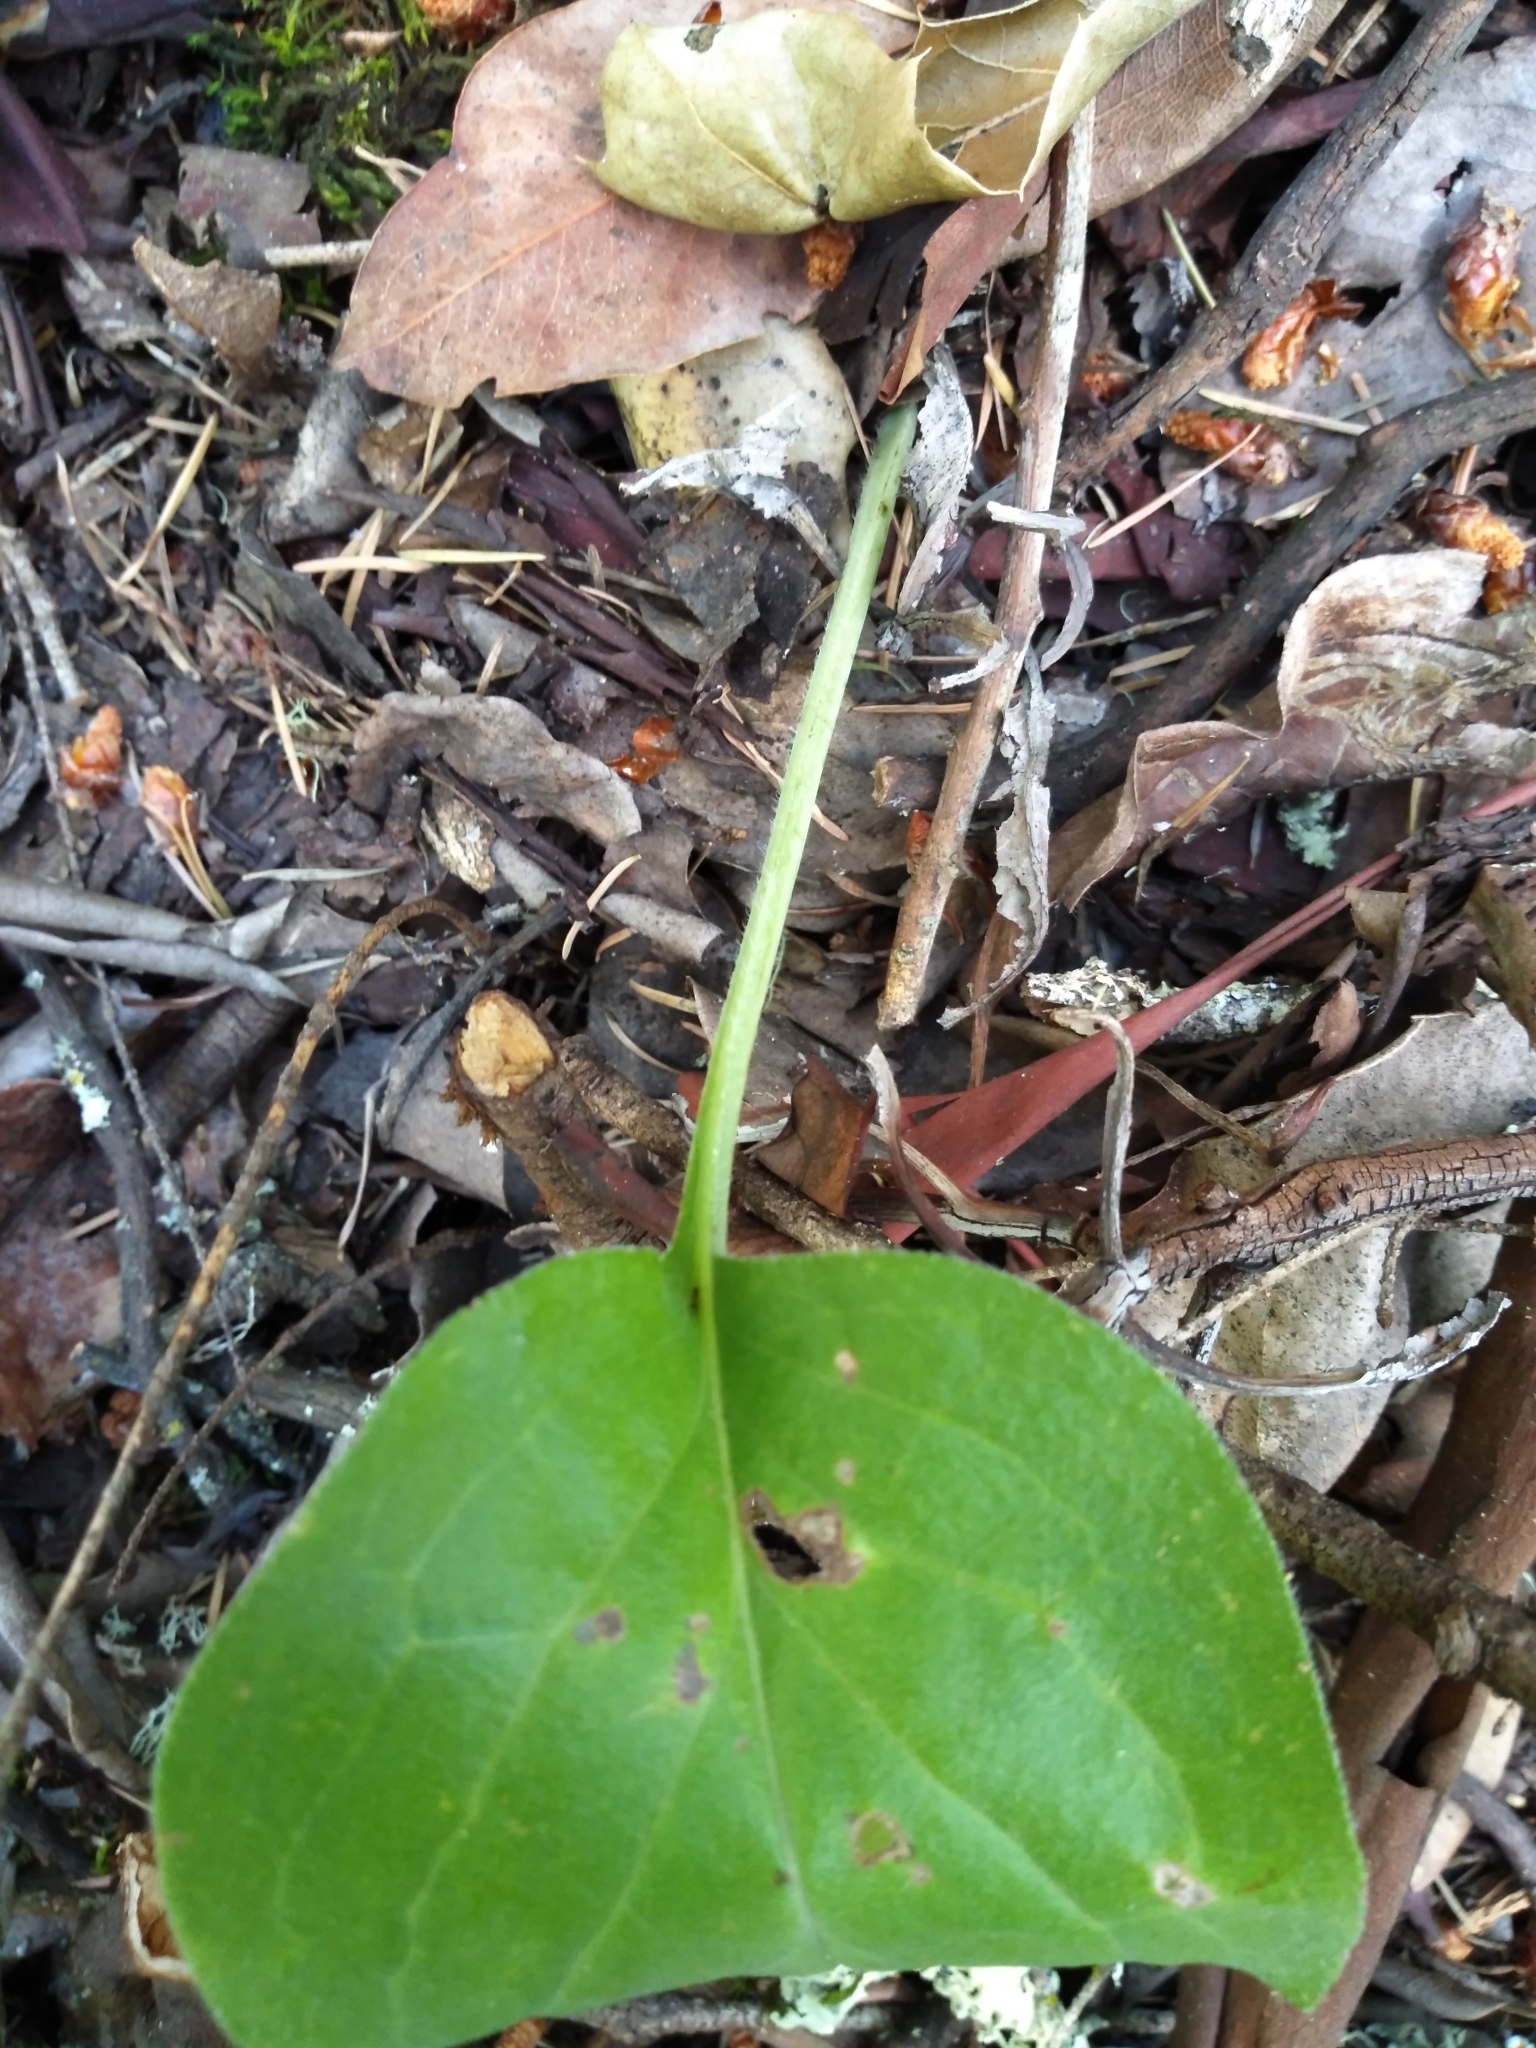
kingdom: Plantae
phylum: Tracheophyta
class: Magnoliopsida
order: Boraginales
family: Boraginaceae
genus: Adelinia
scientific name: Adelinia grande
